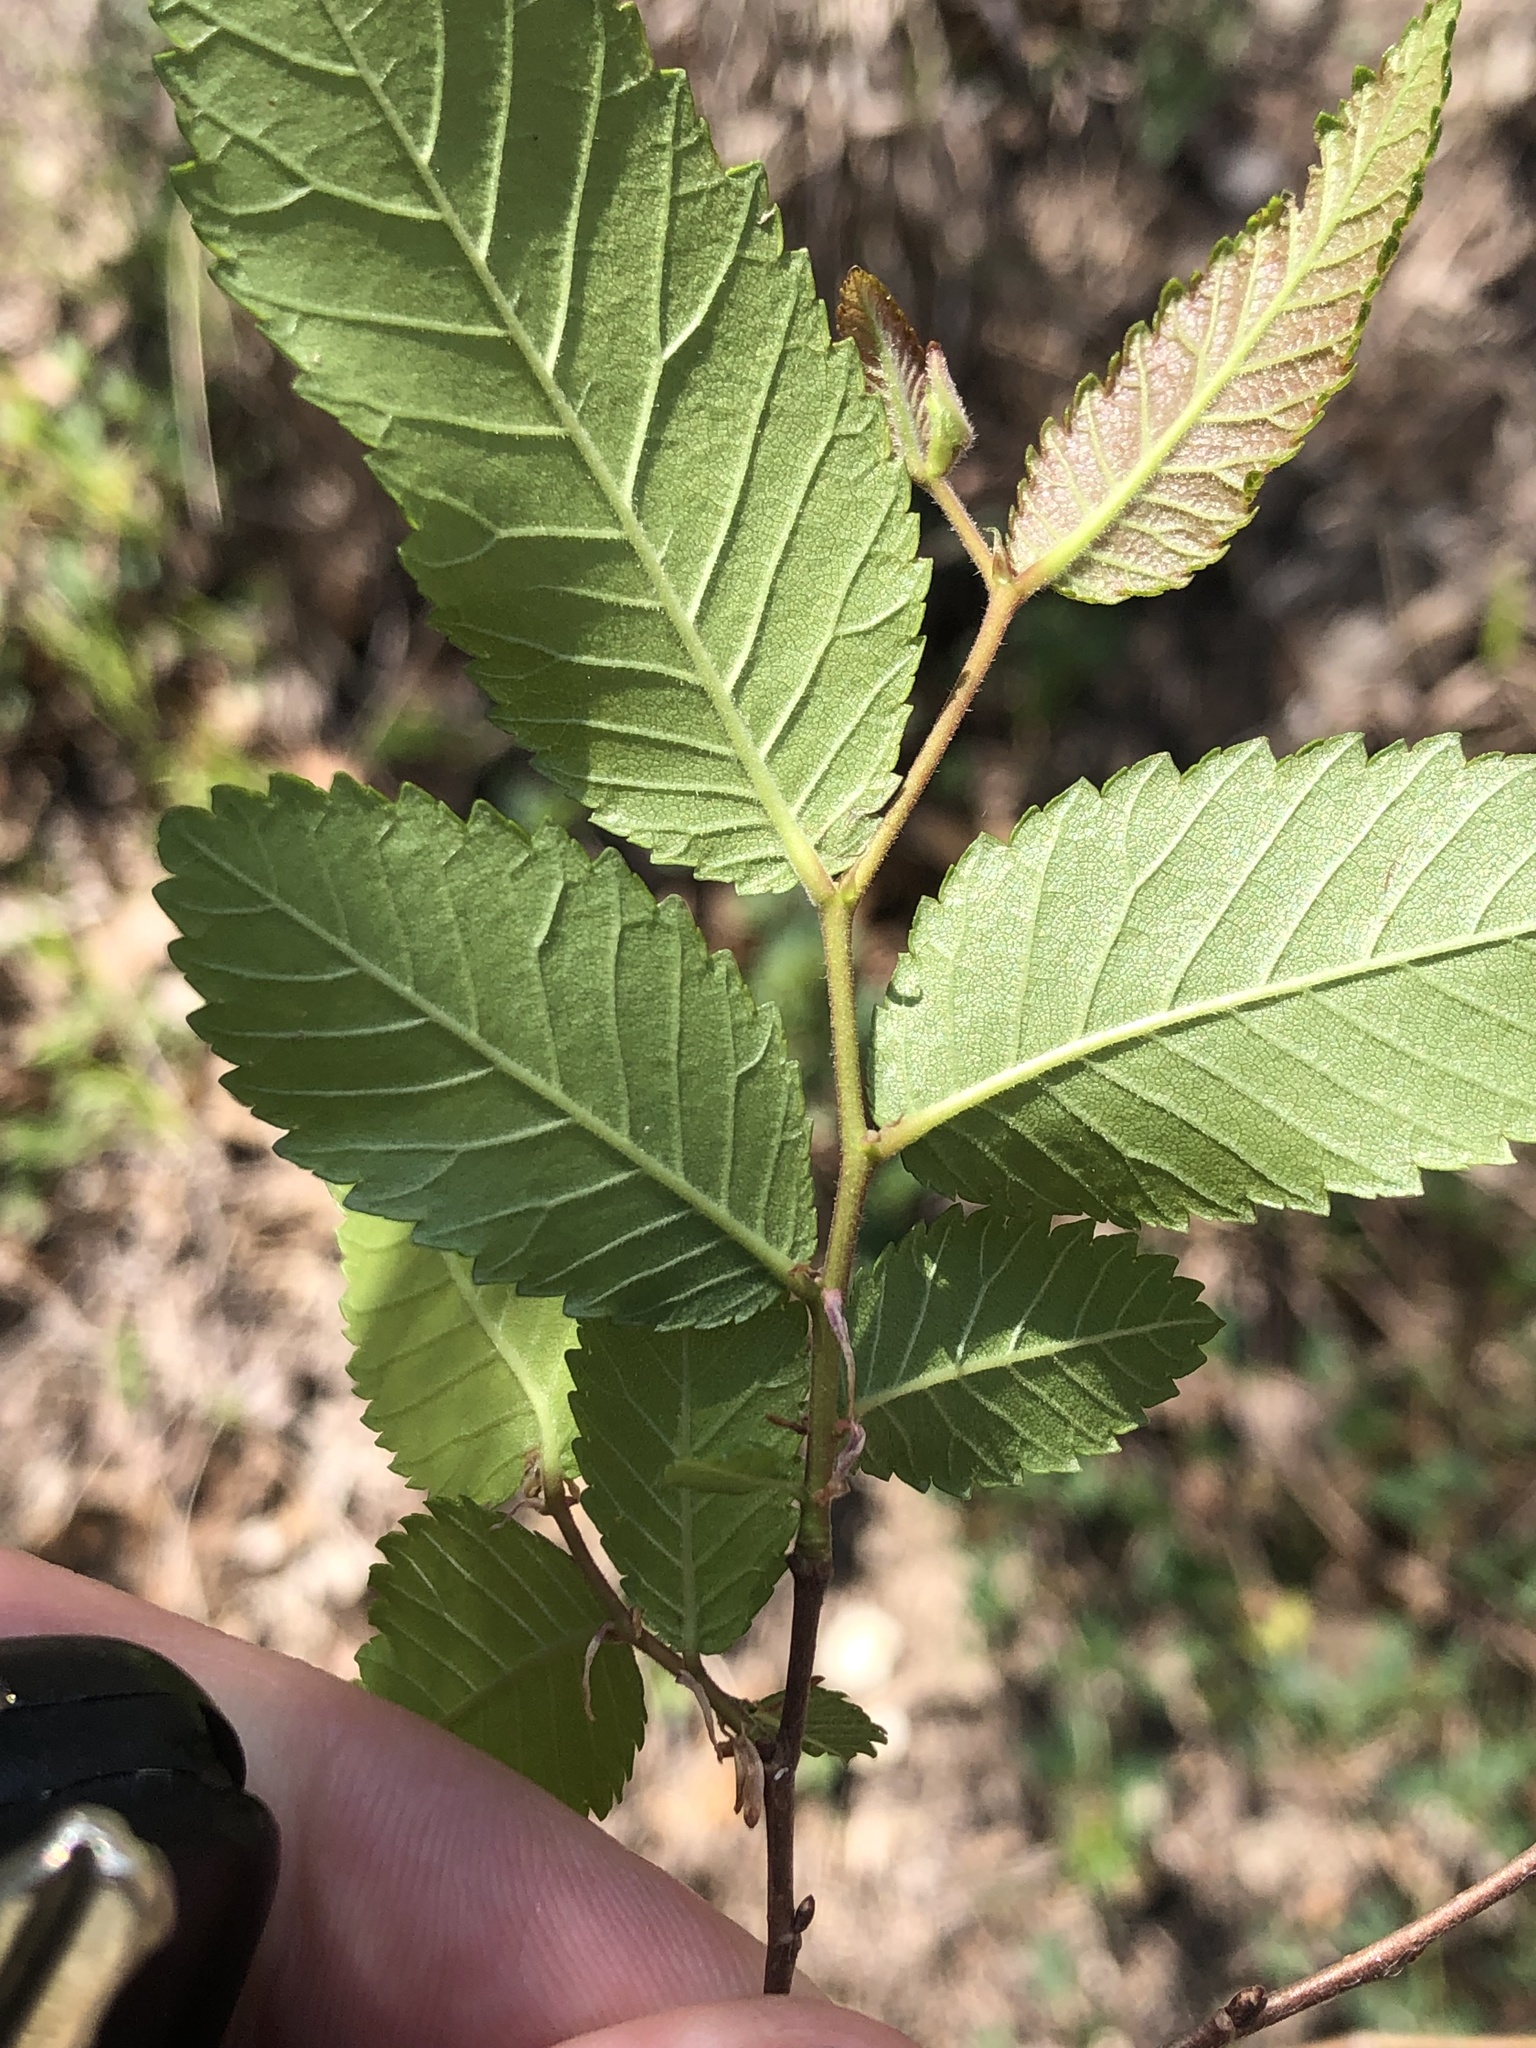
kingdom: Plantae
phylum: Tracheophyta
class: Magnoliopsida
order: Rosales
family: Ulmaceae
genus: Ulmus
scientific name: Ulmus crassifolia
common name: Basket elm
